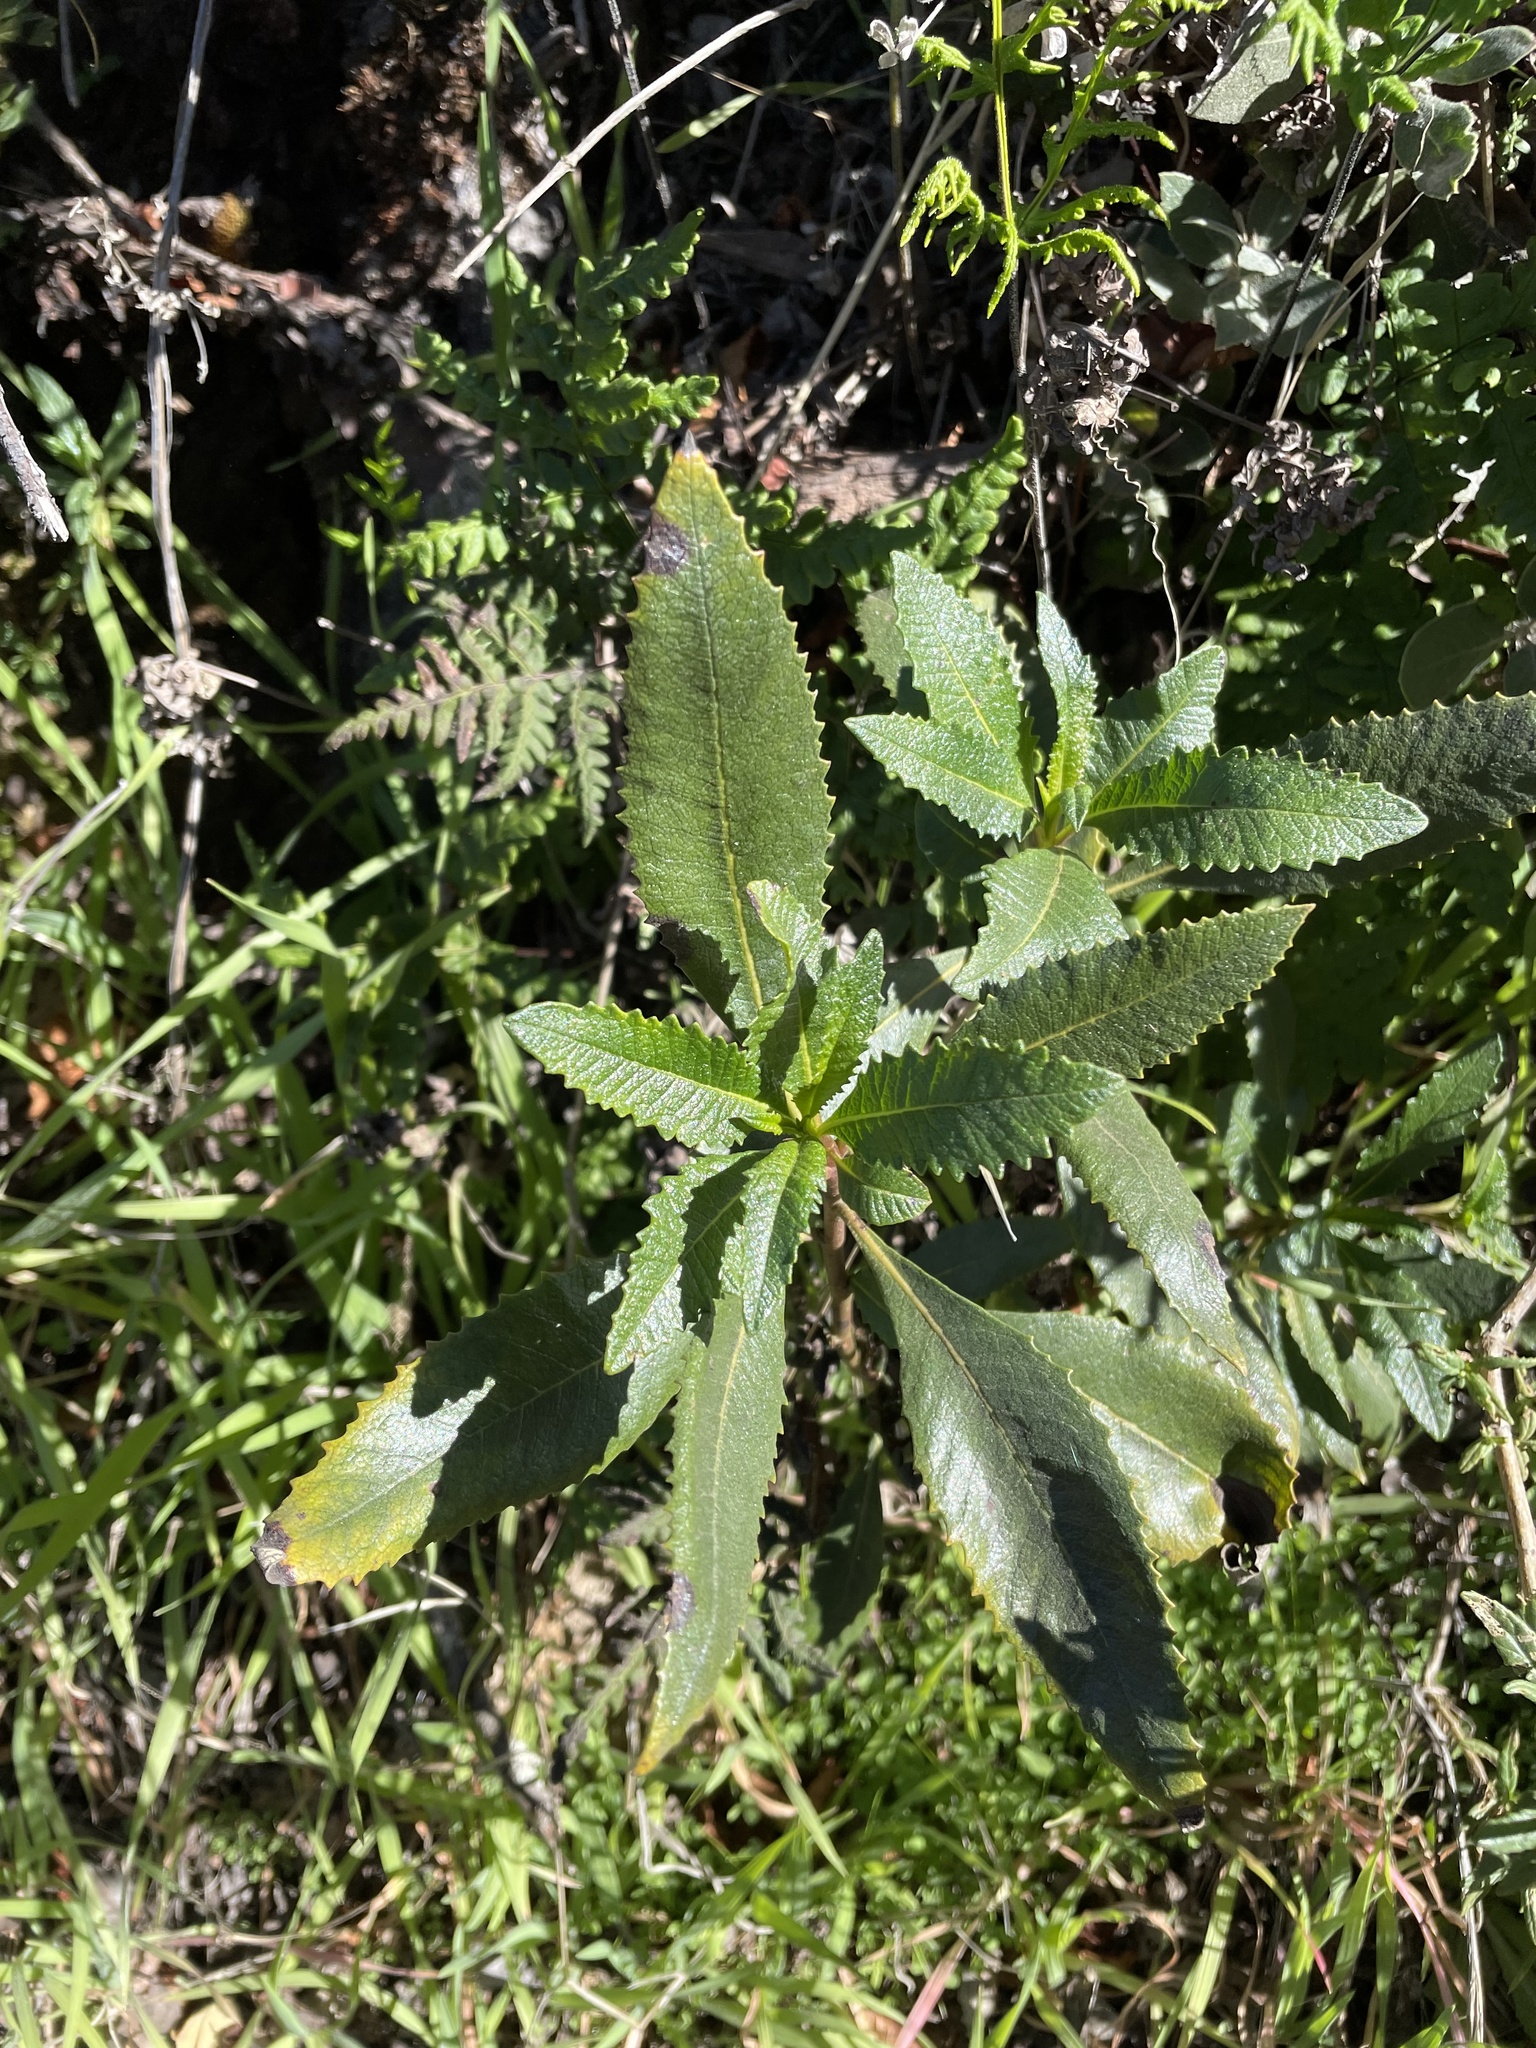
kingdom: Plantae
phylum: Tracheophyta
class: Magnoliopsida
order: Boraginales
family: Namaceae
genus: Eriodictyon
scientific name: Eriodictyon californicum
